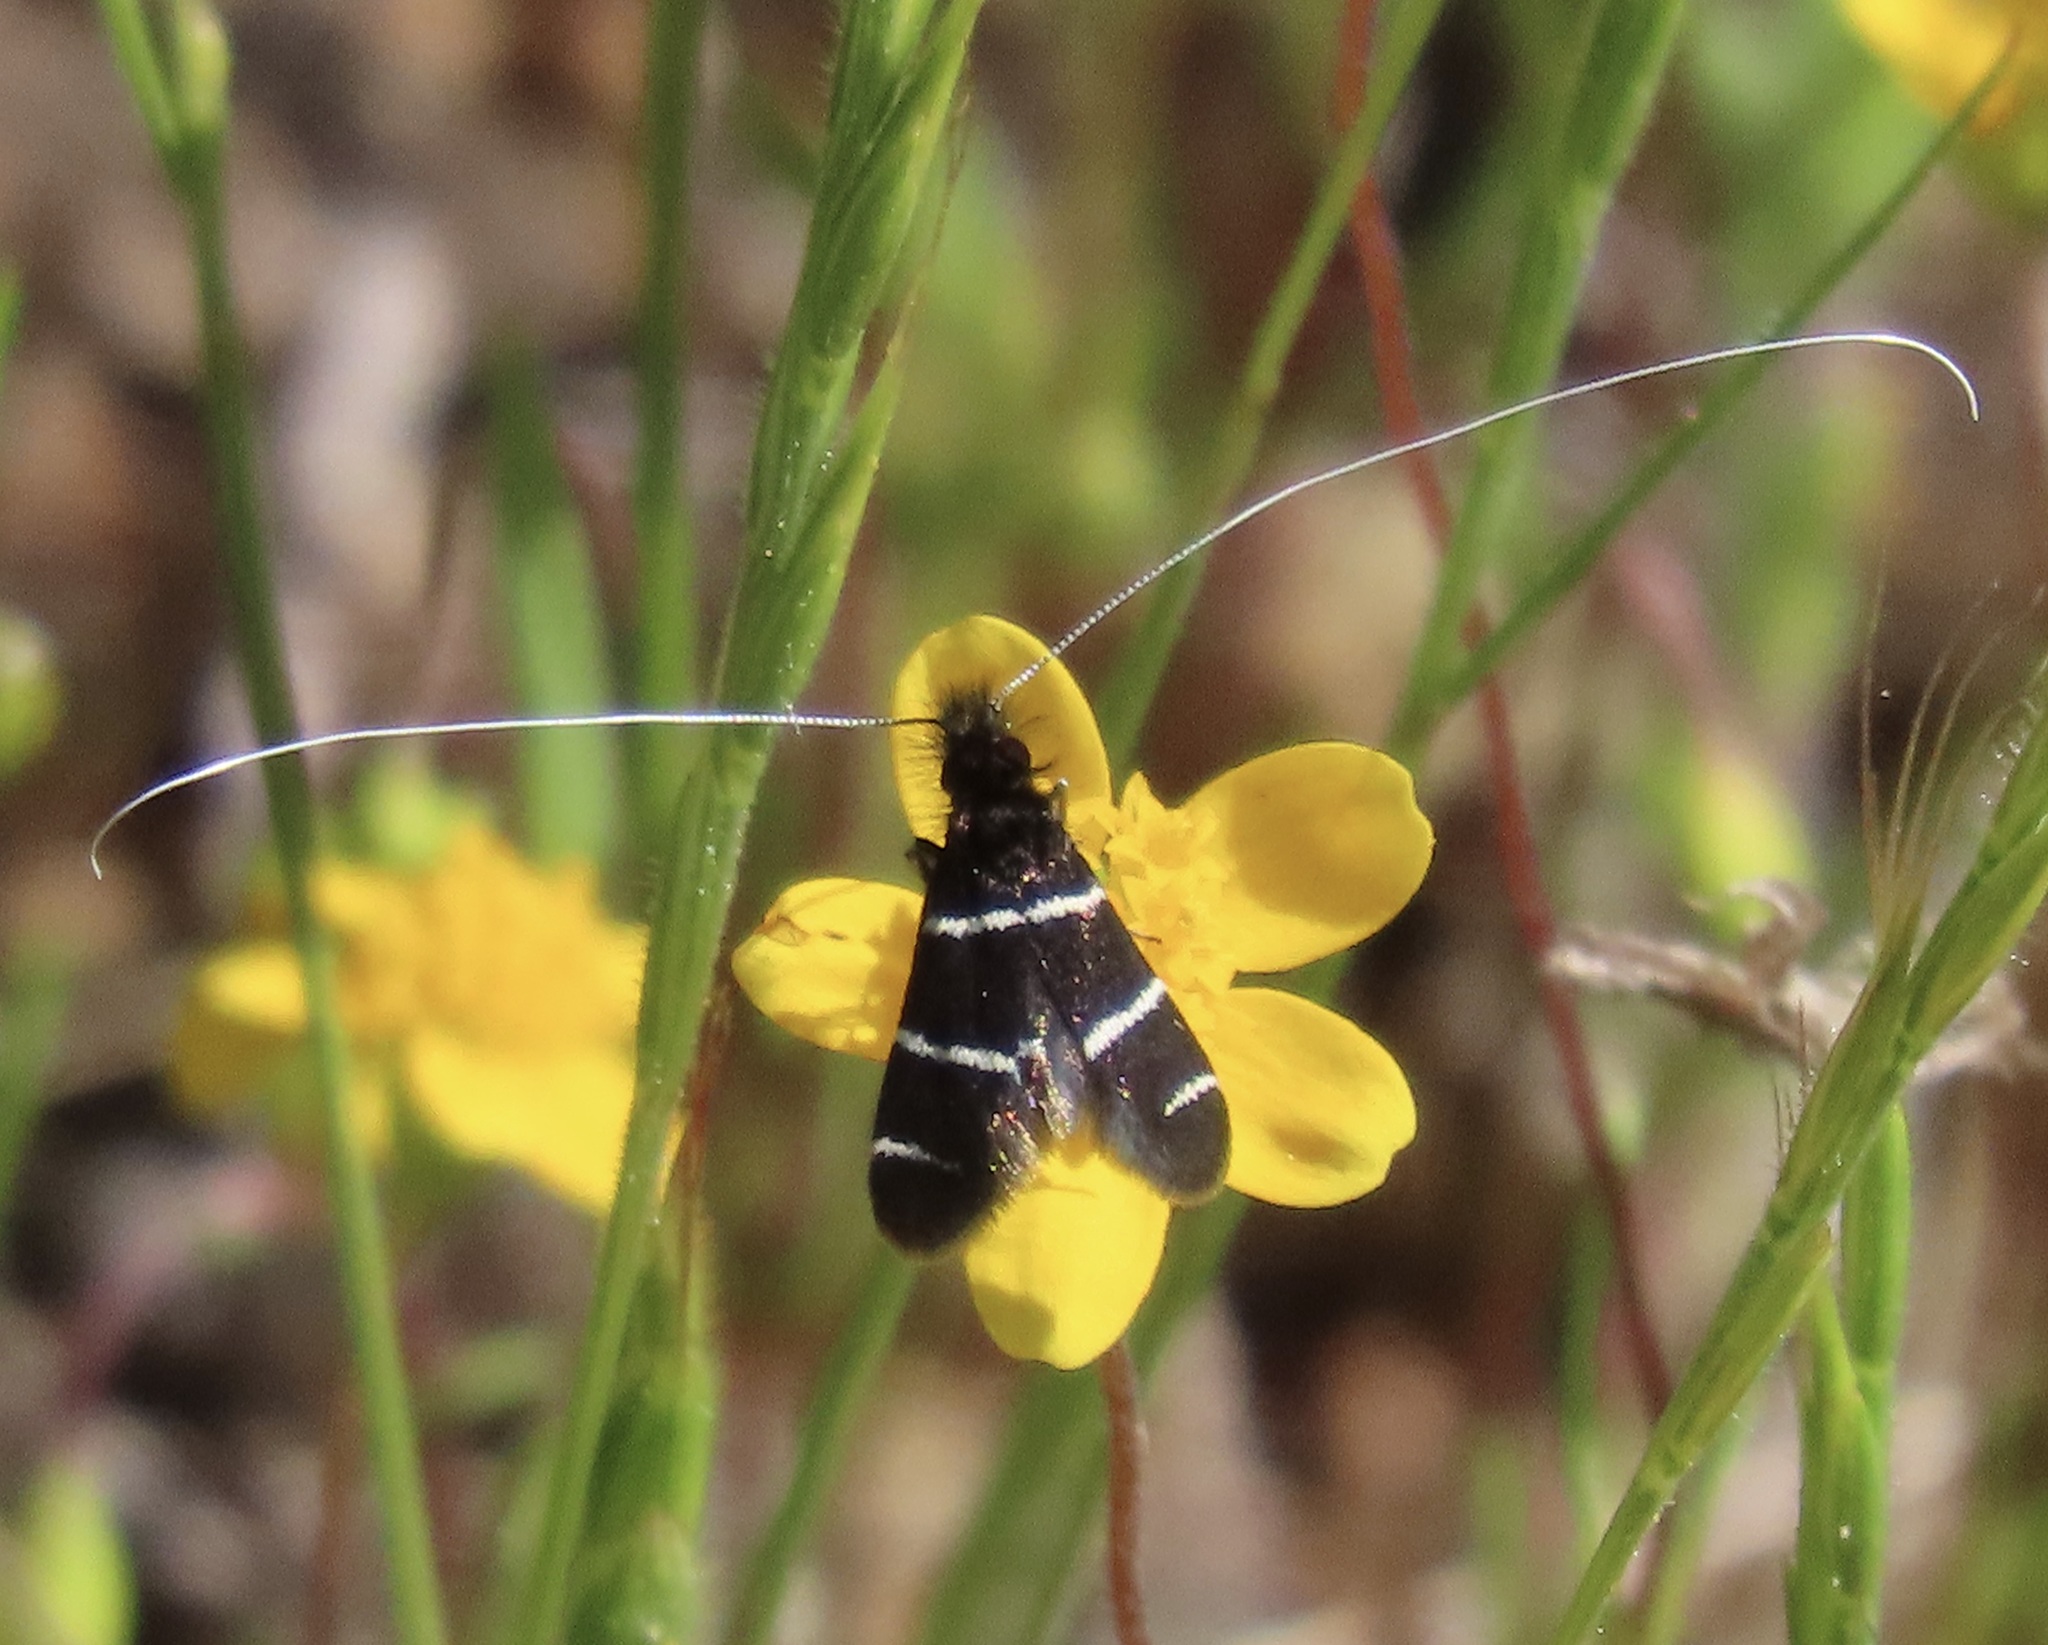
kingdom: Animalia
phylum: Arthropoda
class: Insecta
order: Lepidoptera
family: Adelidae
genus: Adela
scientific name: Adela trigrapha
